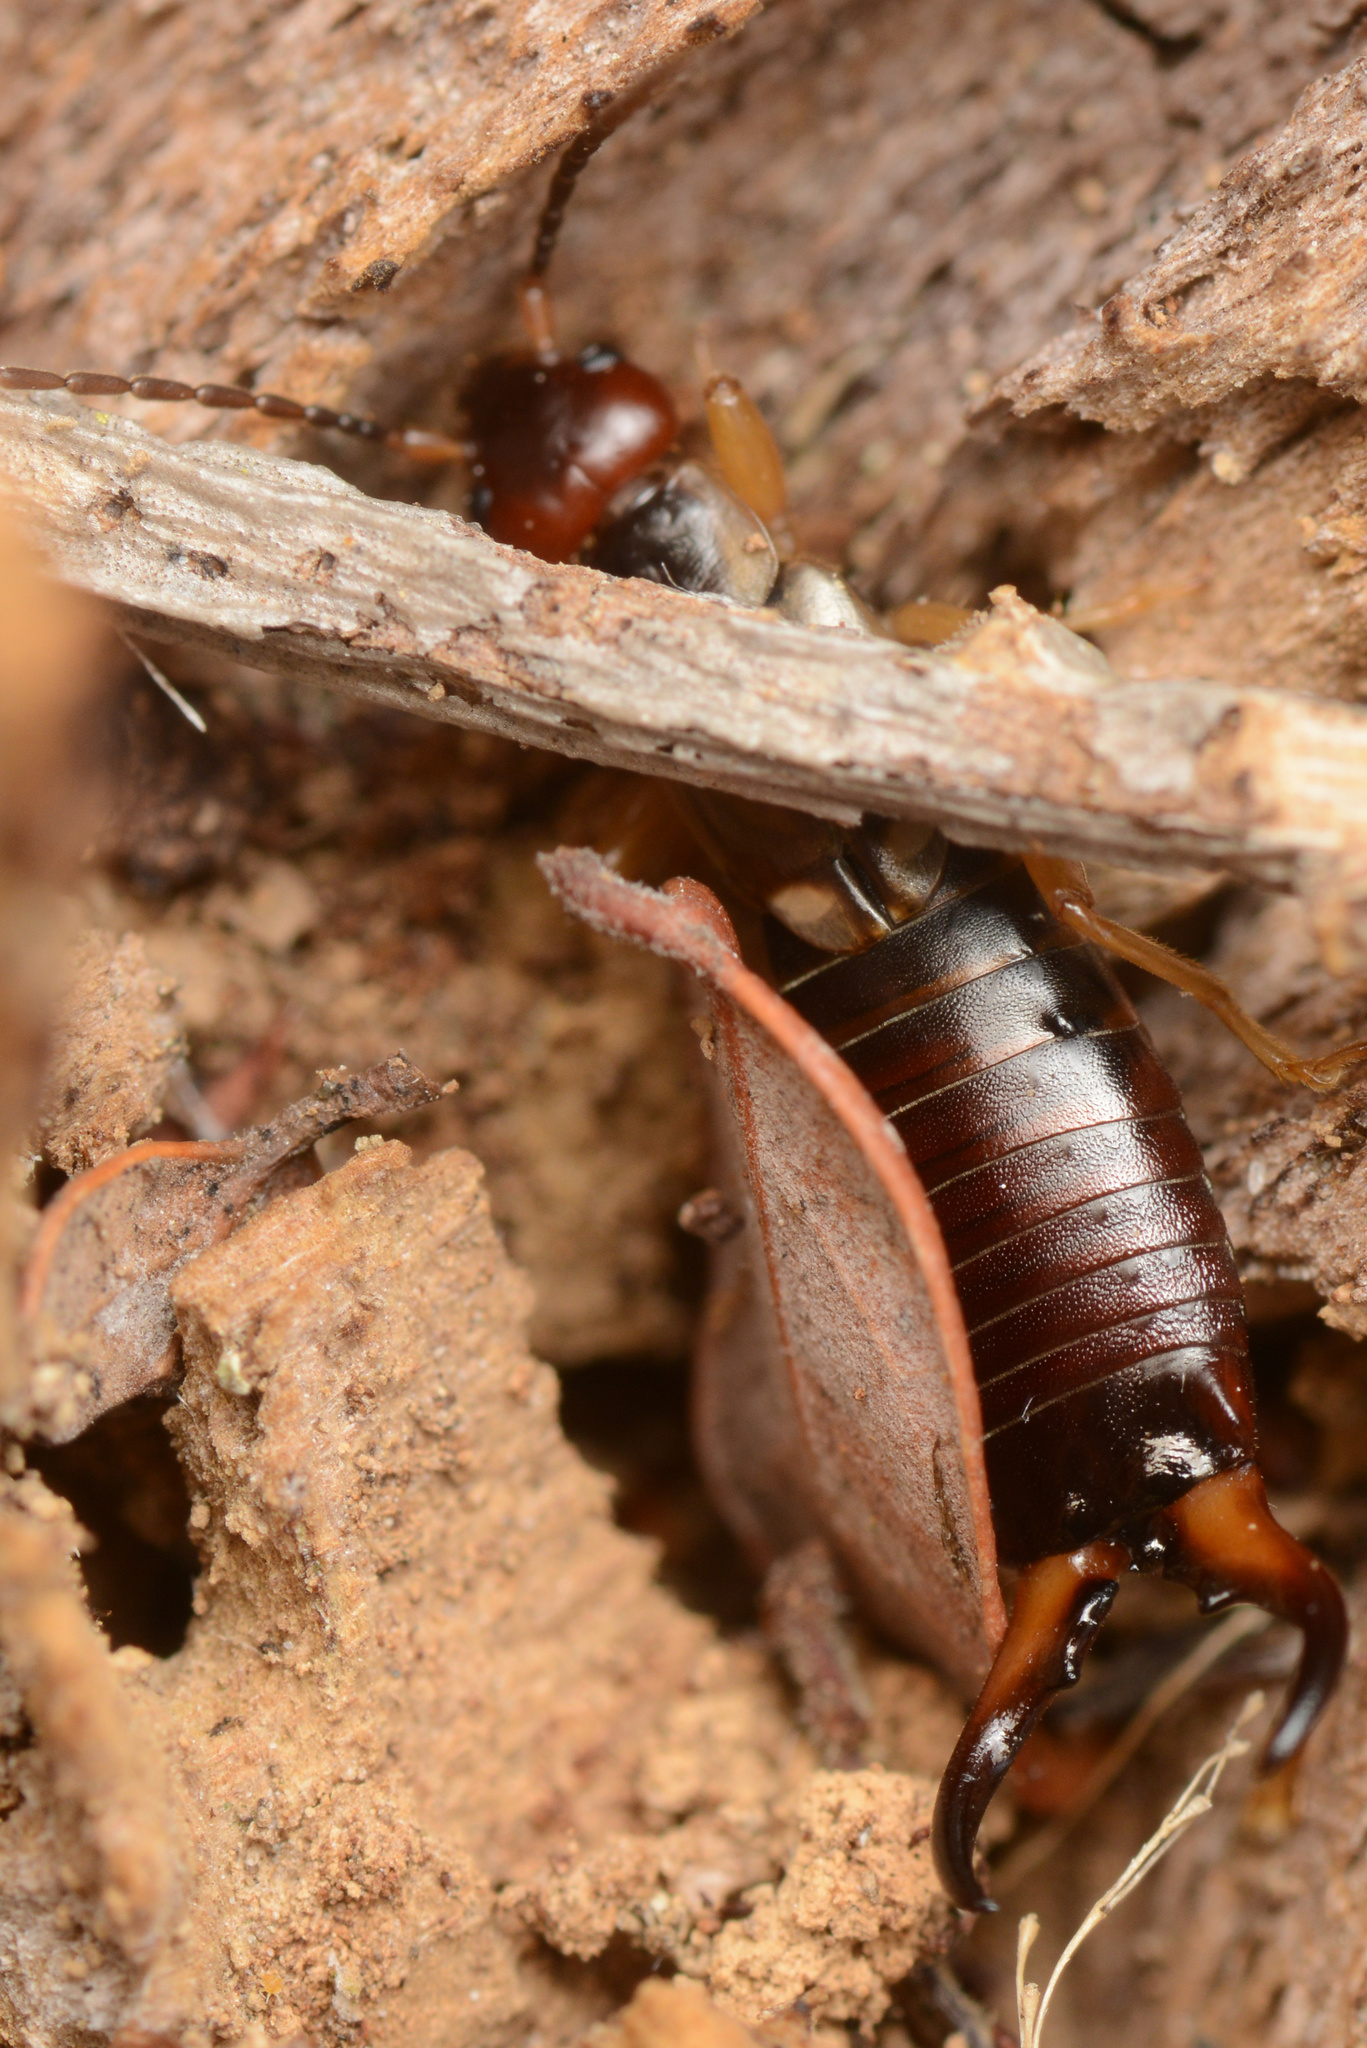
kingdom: Animalia
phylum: Arthropoda
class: Insecta
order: Dermaptera
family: Forficulidae
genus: Forficula
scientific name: Forficula
